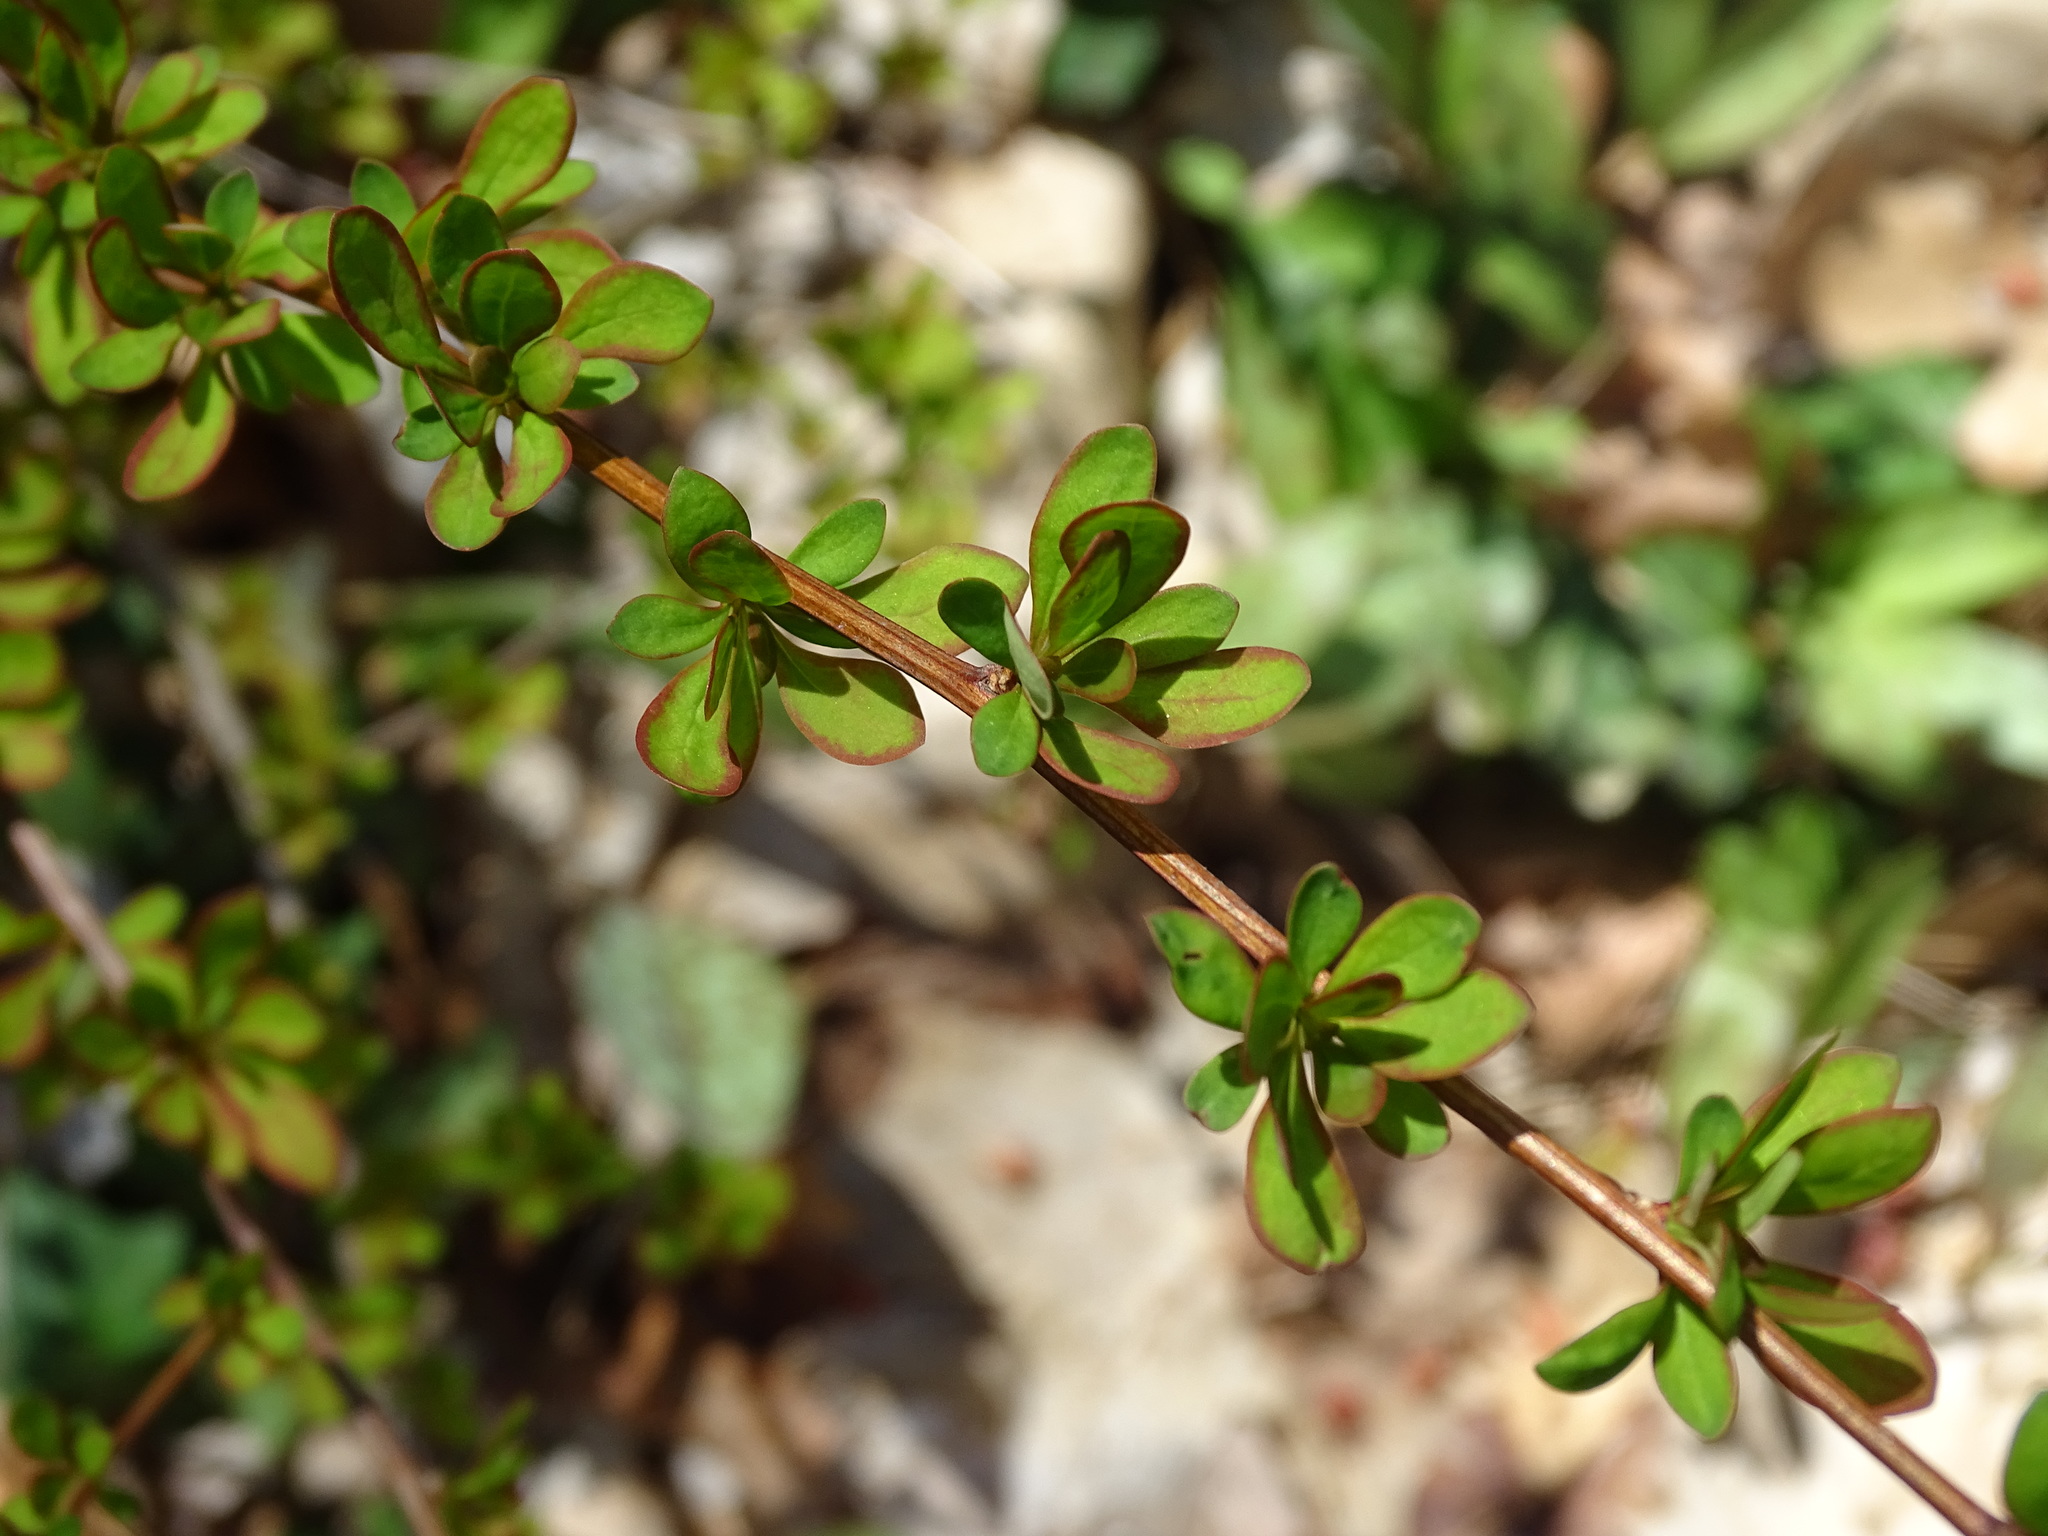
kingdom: Plantae
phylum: Tracheophyta
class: Magnoliopsida
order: Ranunculales
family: Berberidaceae
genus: Berberis
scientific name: Berberis thunbergii
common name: Japanese barberry
